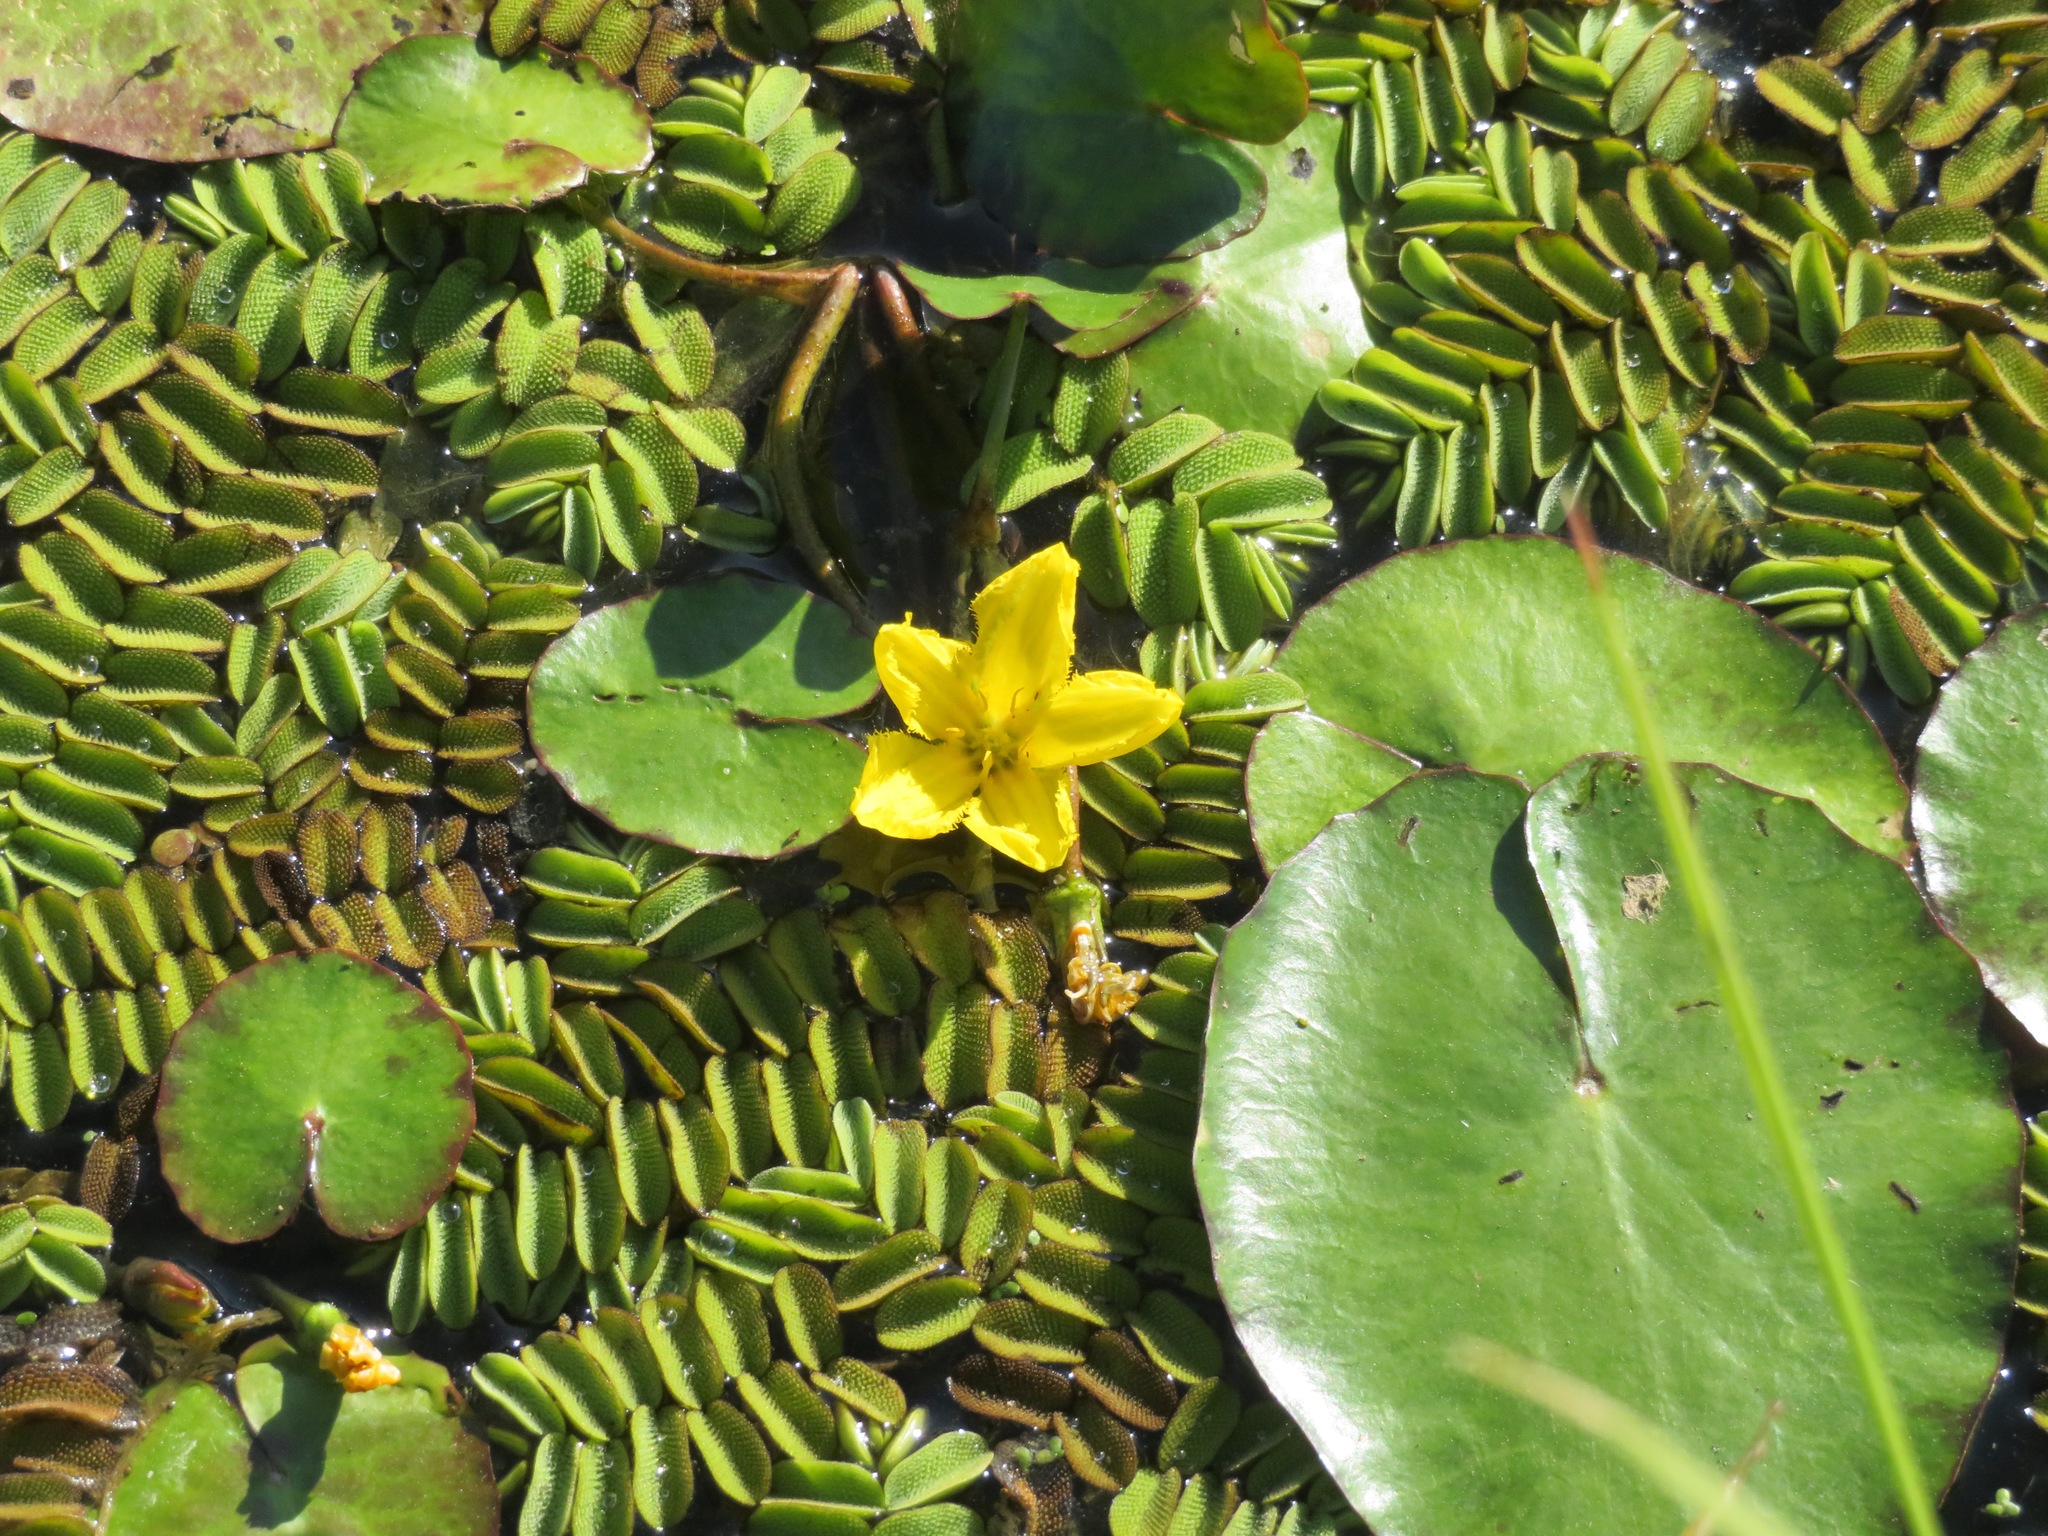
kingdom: Plantae
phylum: Tracheophyta
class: Magnoliopsida
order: Asterales
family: Menyanthaceae
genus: Nymphoides
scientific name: Nymphoides peltata
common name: Fringed water-lily
